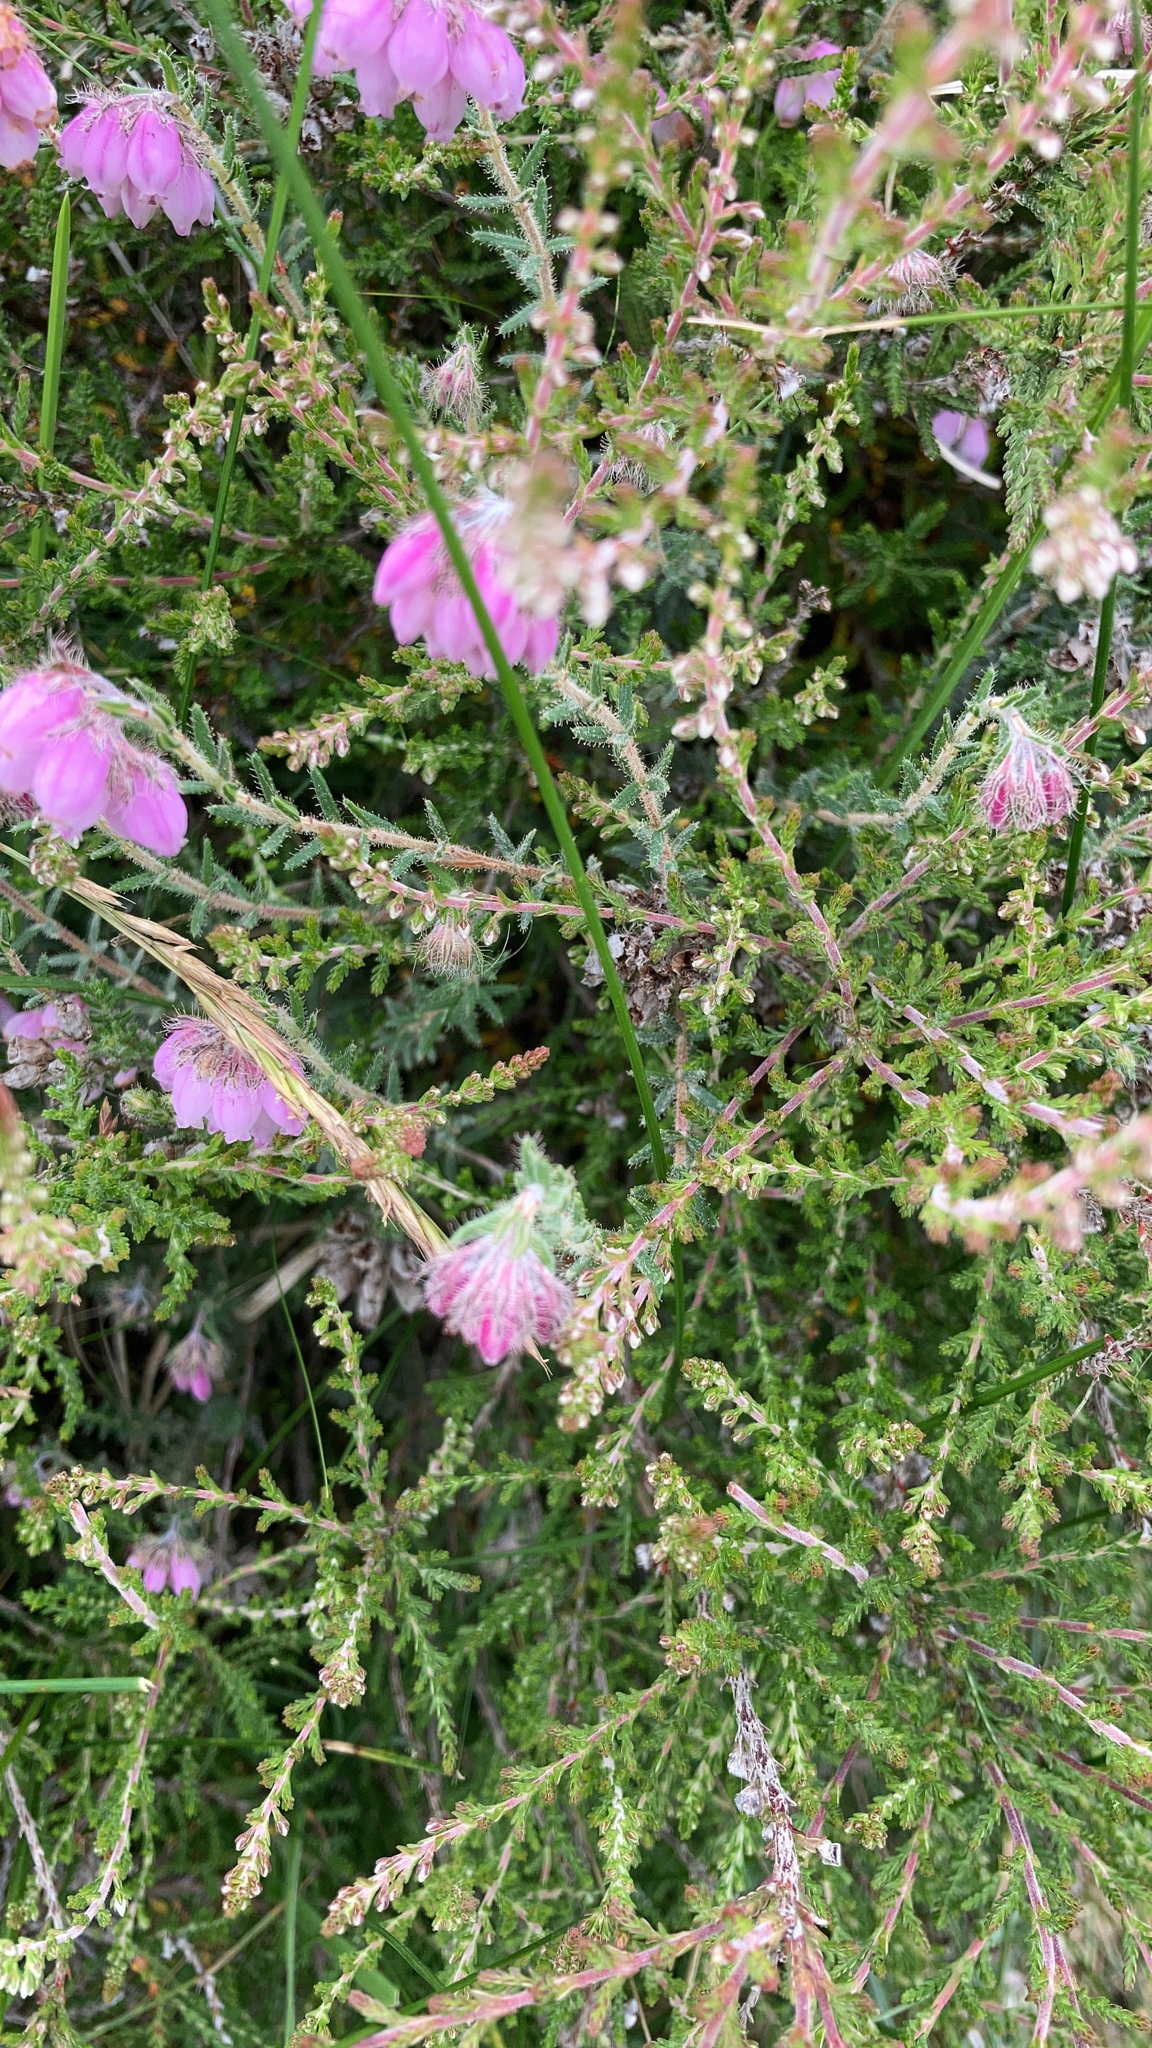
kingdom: Plantae
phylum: Tracheophyta
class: Magnoliopsida
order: Ericales
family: Ericaceae
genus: Erica
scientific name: Erica tetralix
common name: Cross-leaved heath
